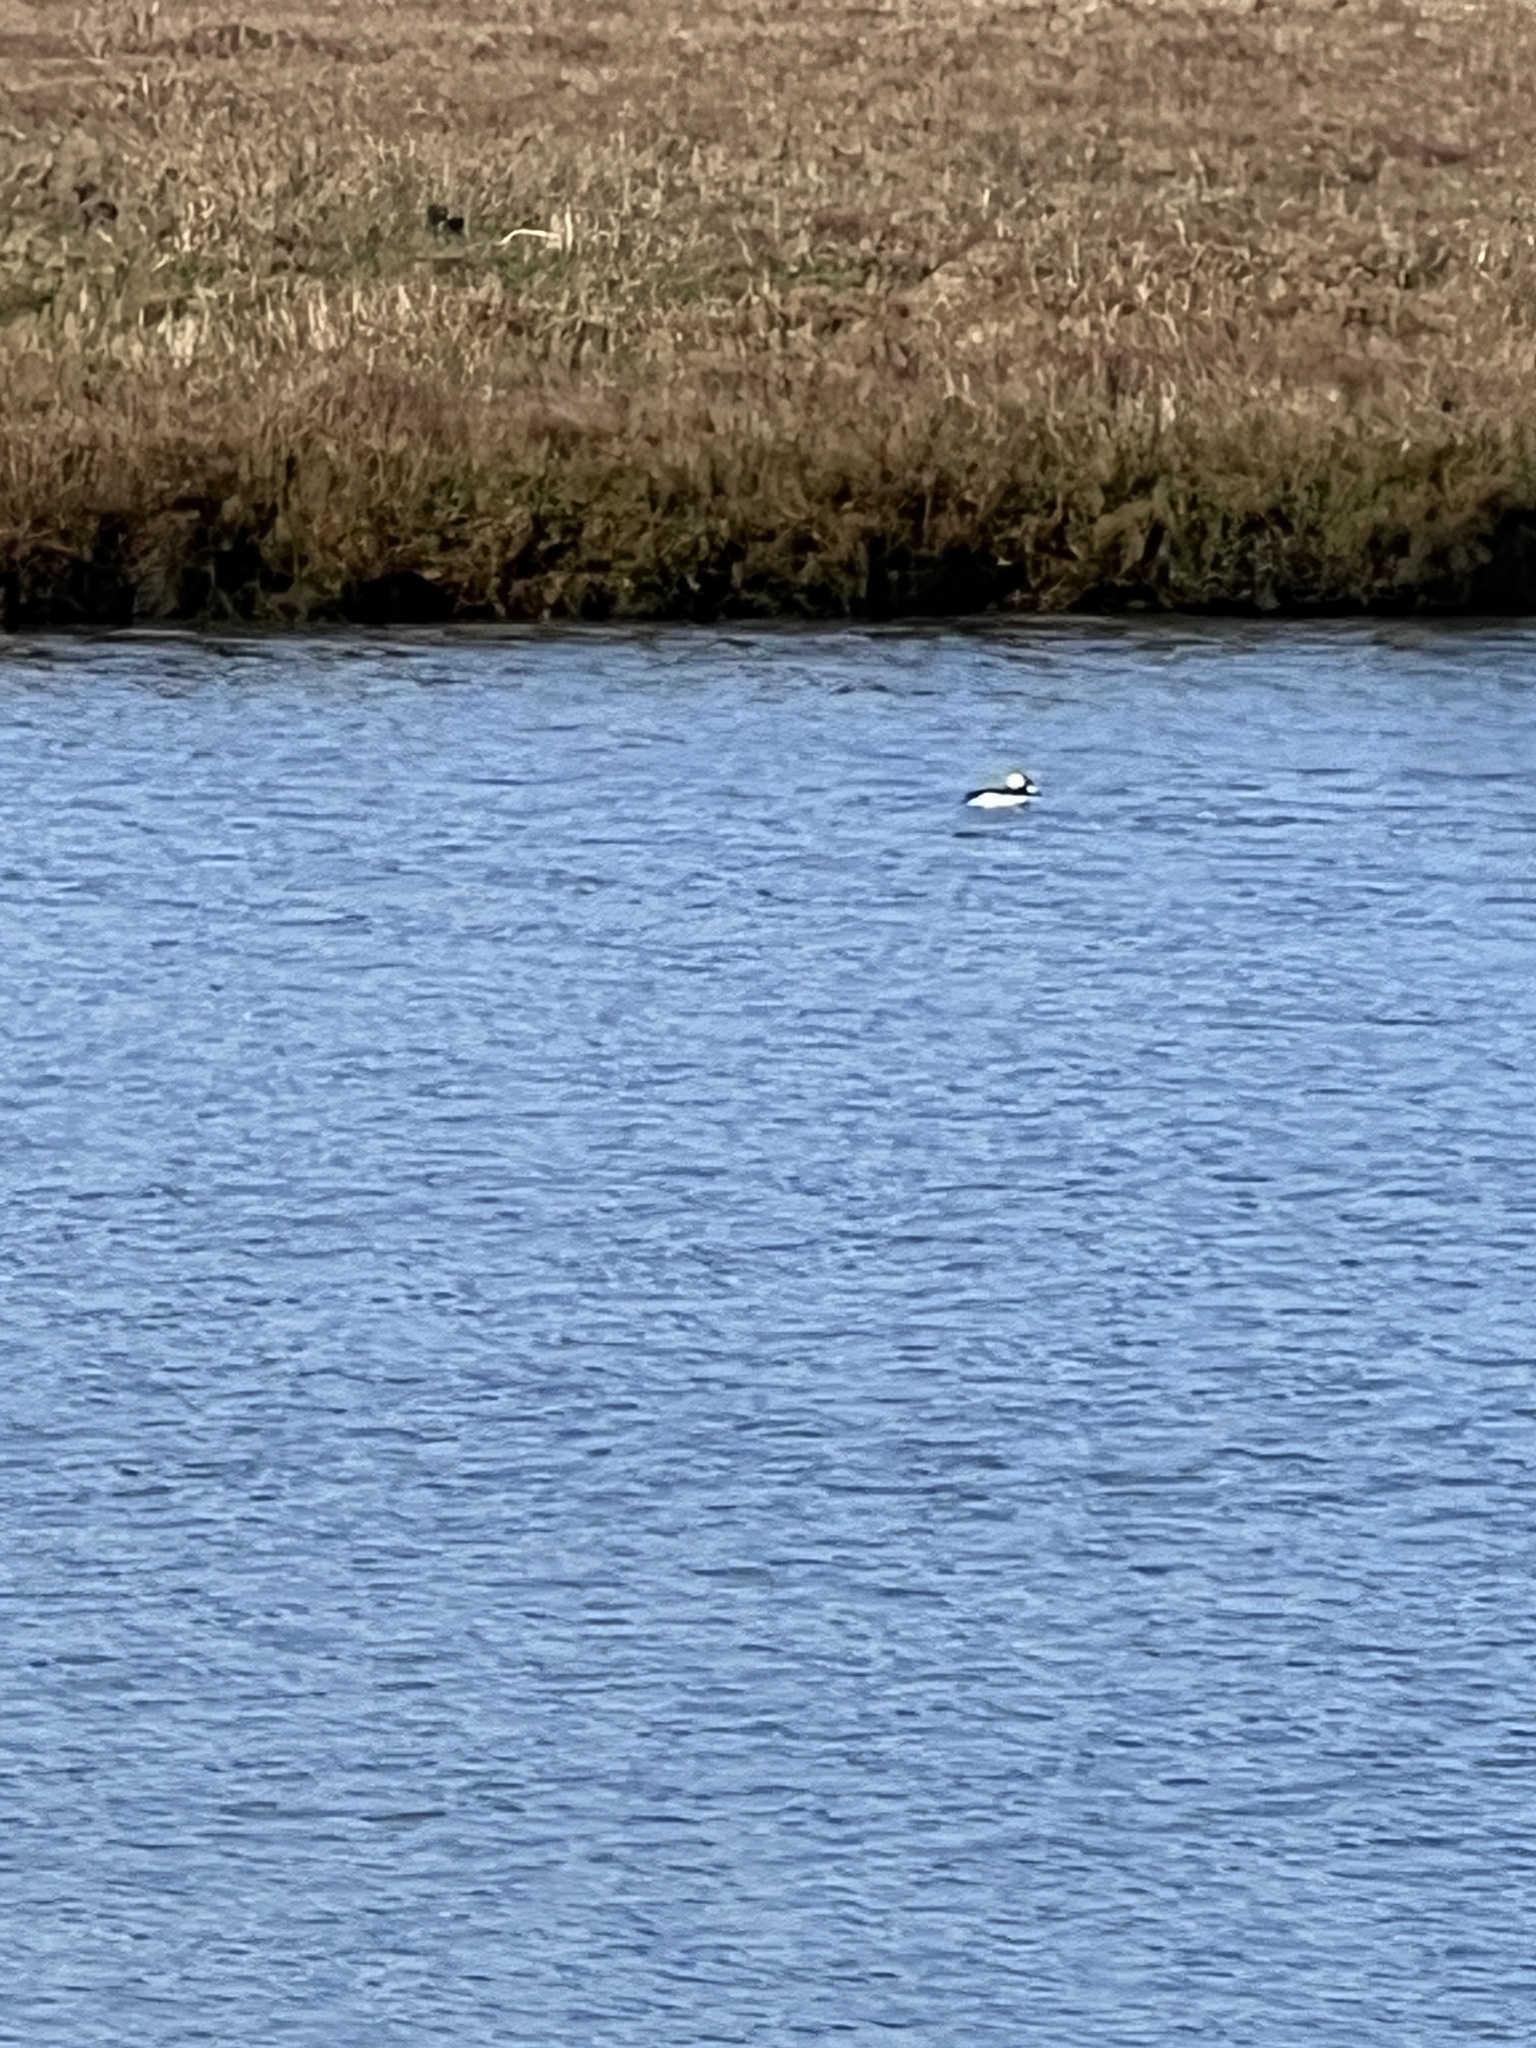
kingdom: Animalia
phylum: Chordata
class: Aves
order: Anseriformes
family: Anatidae
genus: Bucephala
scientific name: Bucephala albeola
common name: Bufflehead
